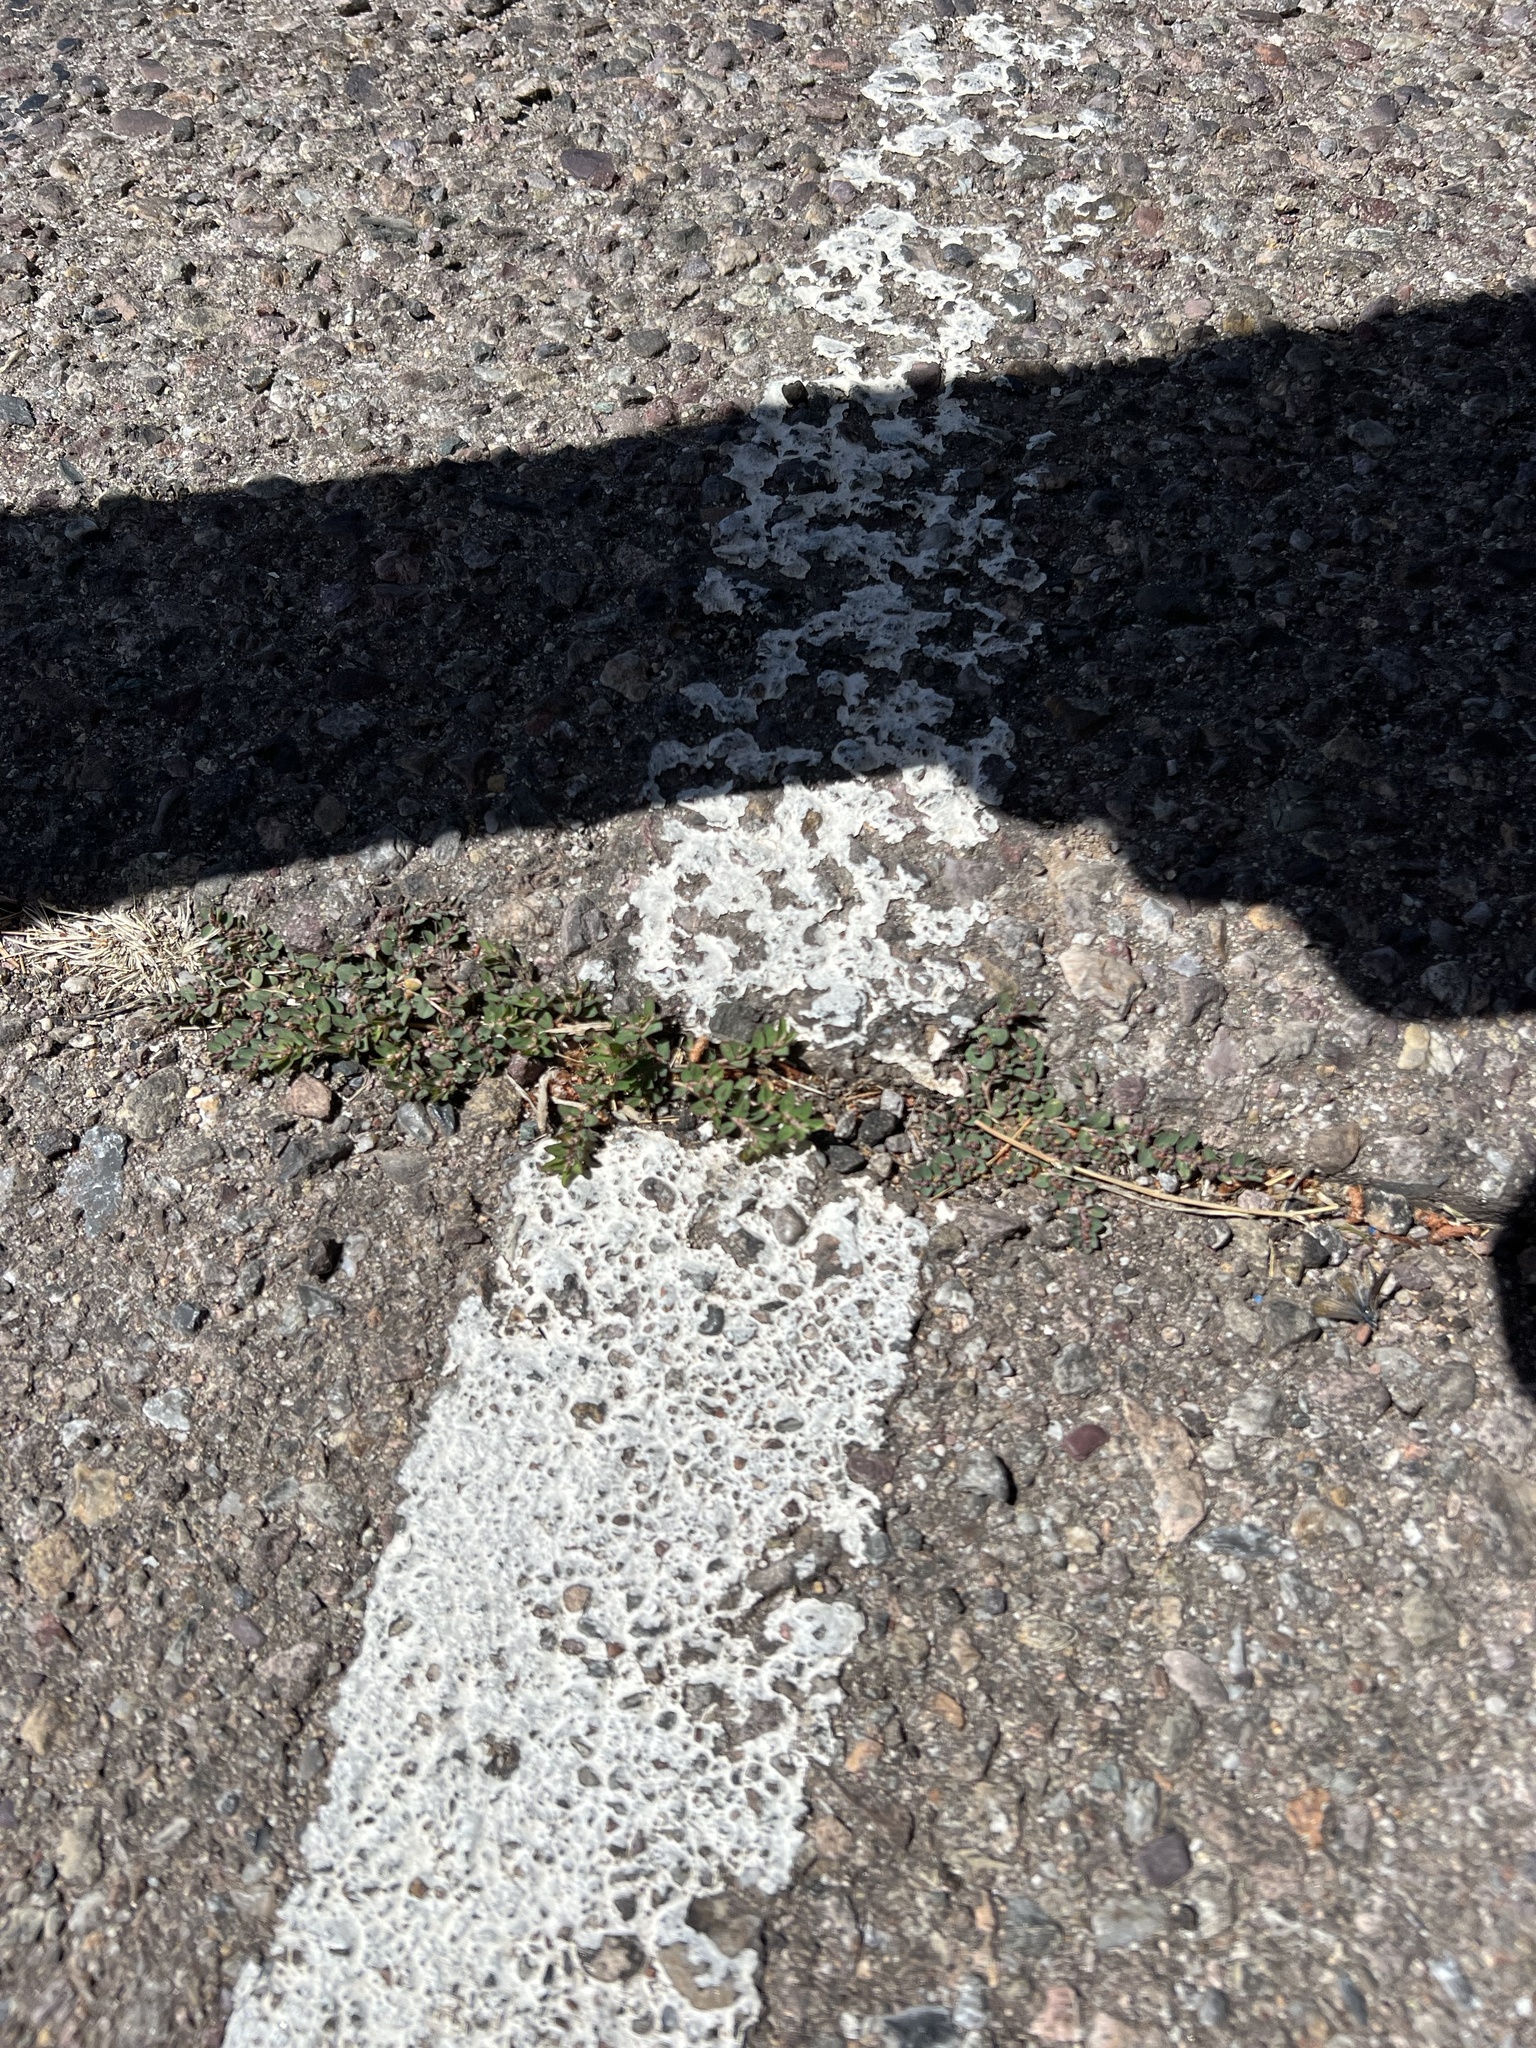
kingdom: Plantae
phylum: Tracheophyta
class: Magnoliopsida
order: Malpighiales
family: Euphorbiaceae
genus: Euphorbia
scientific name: Euphorbia maculata
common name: Spotted spurge
